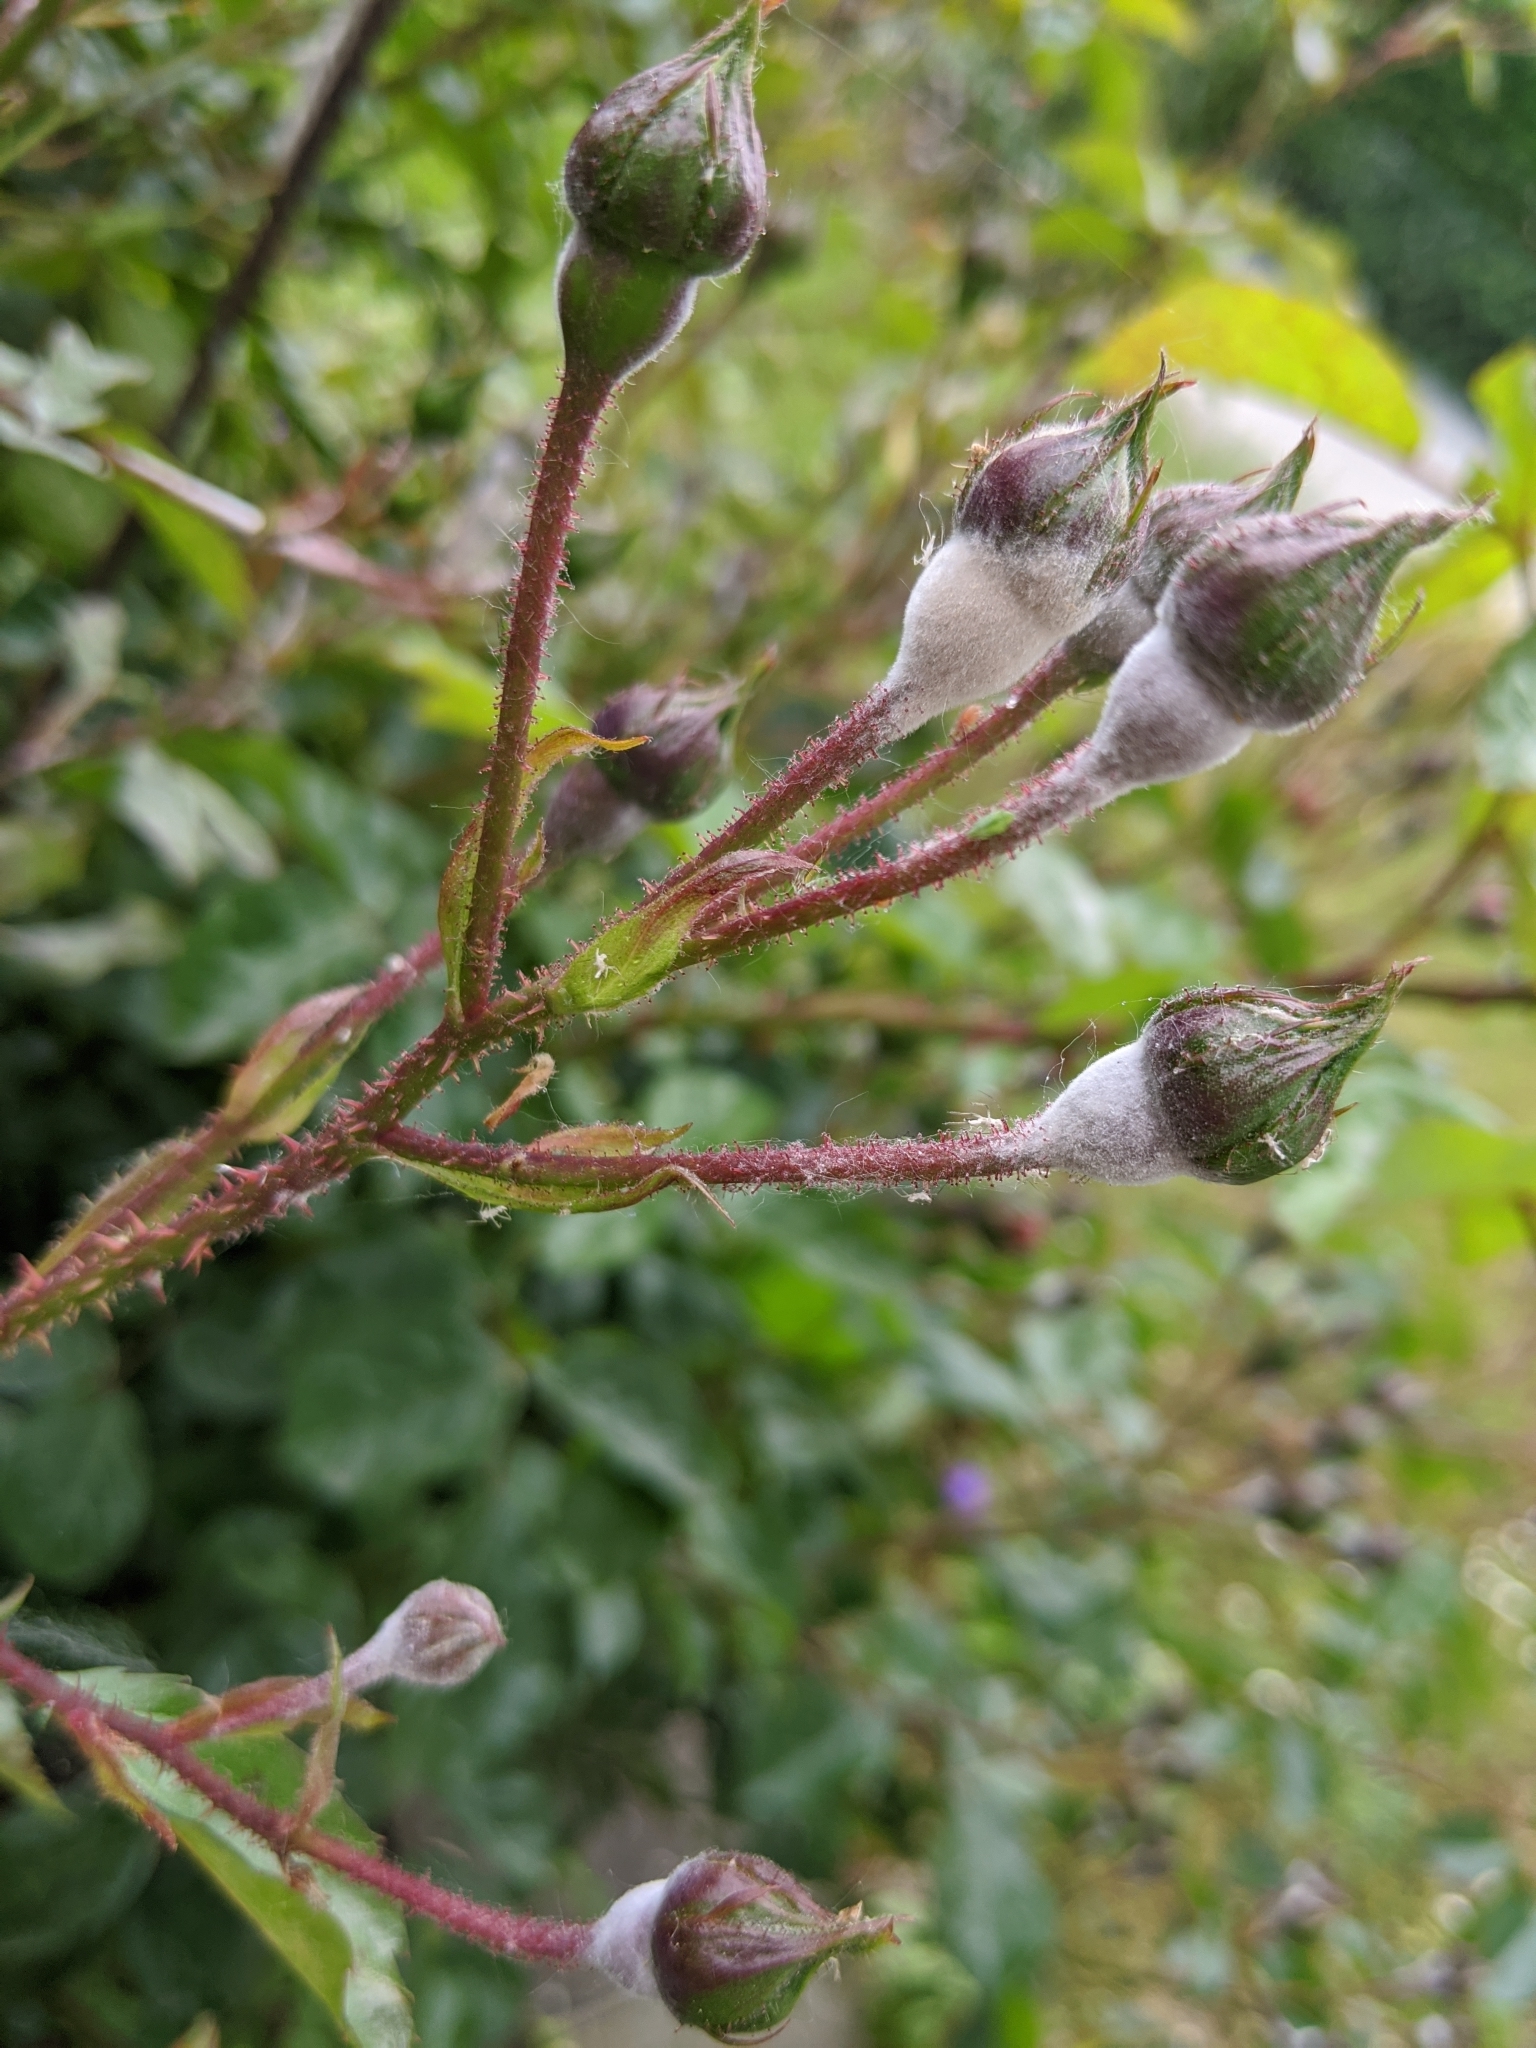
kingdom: Fungi
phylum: Ascomycota
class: Leotiomycetes
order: Helotiales
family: Erysiphaceae
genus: Podosphaera
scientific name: Podosphaera pannosa
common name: Rose mildew
